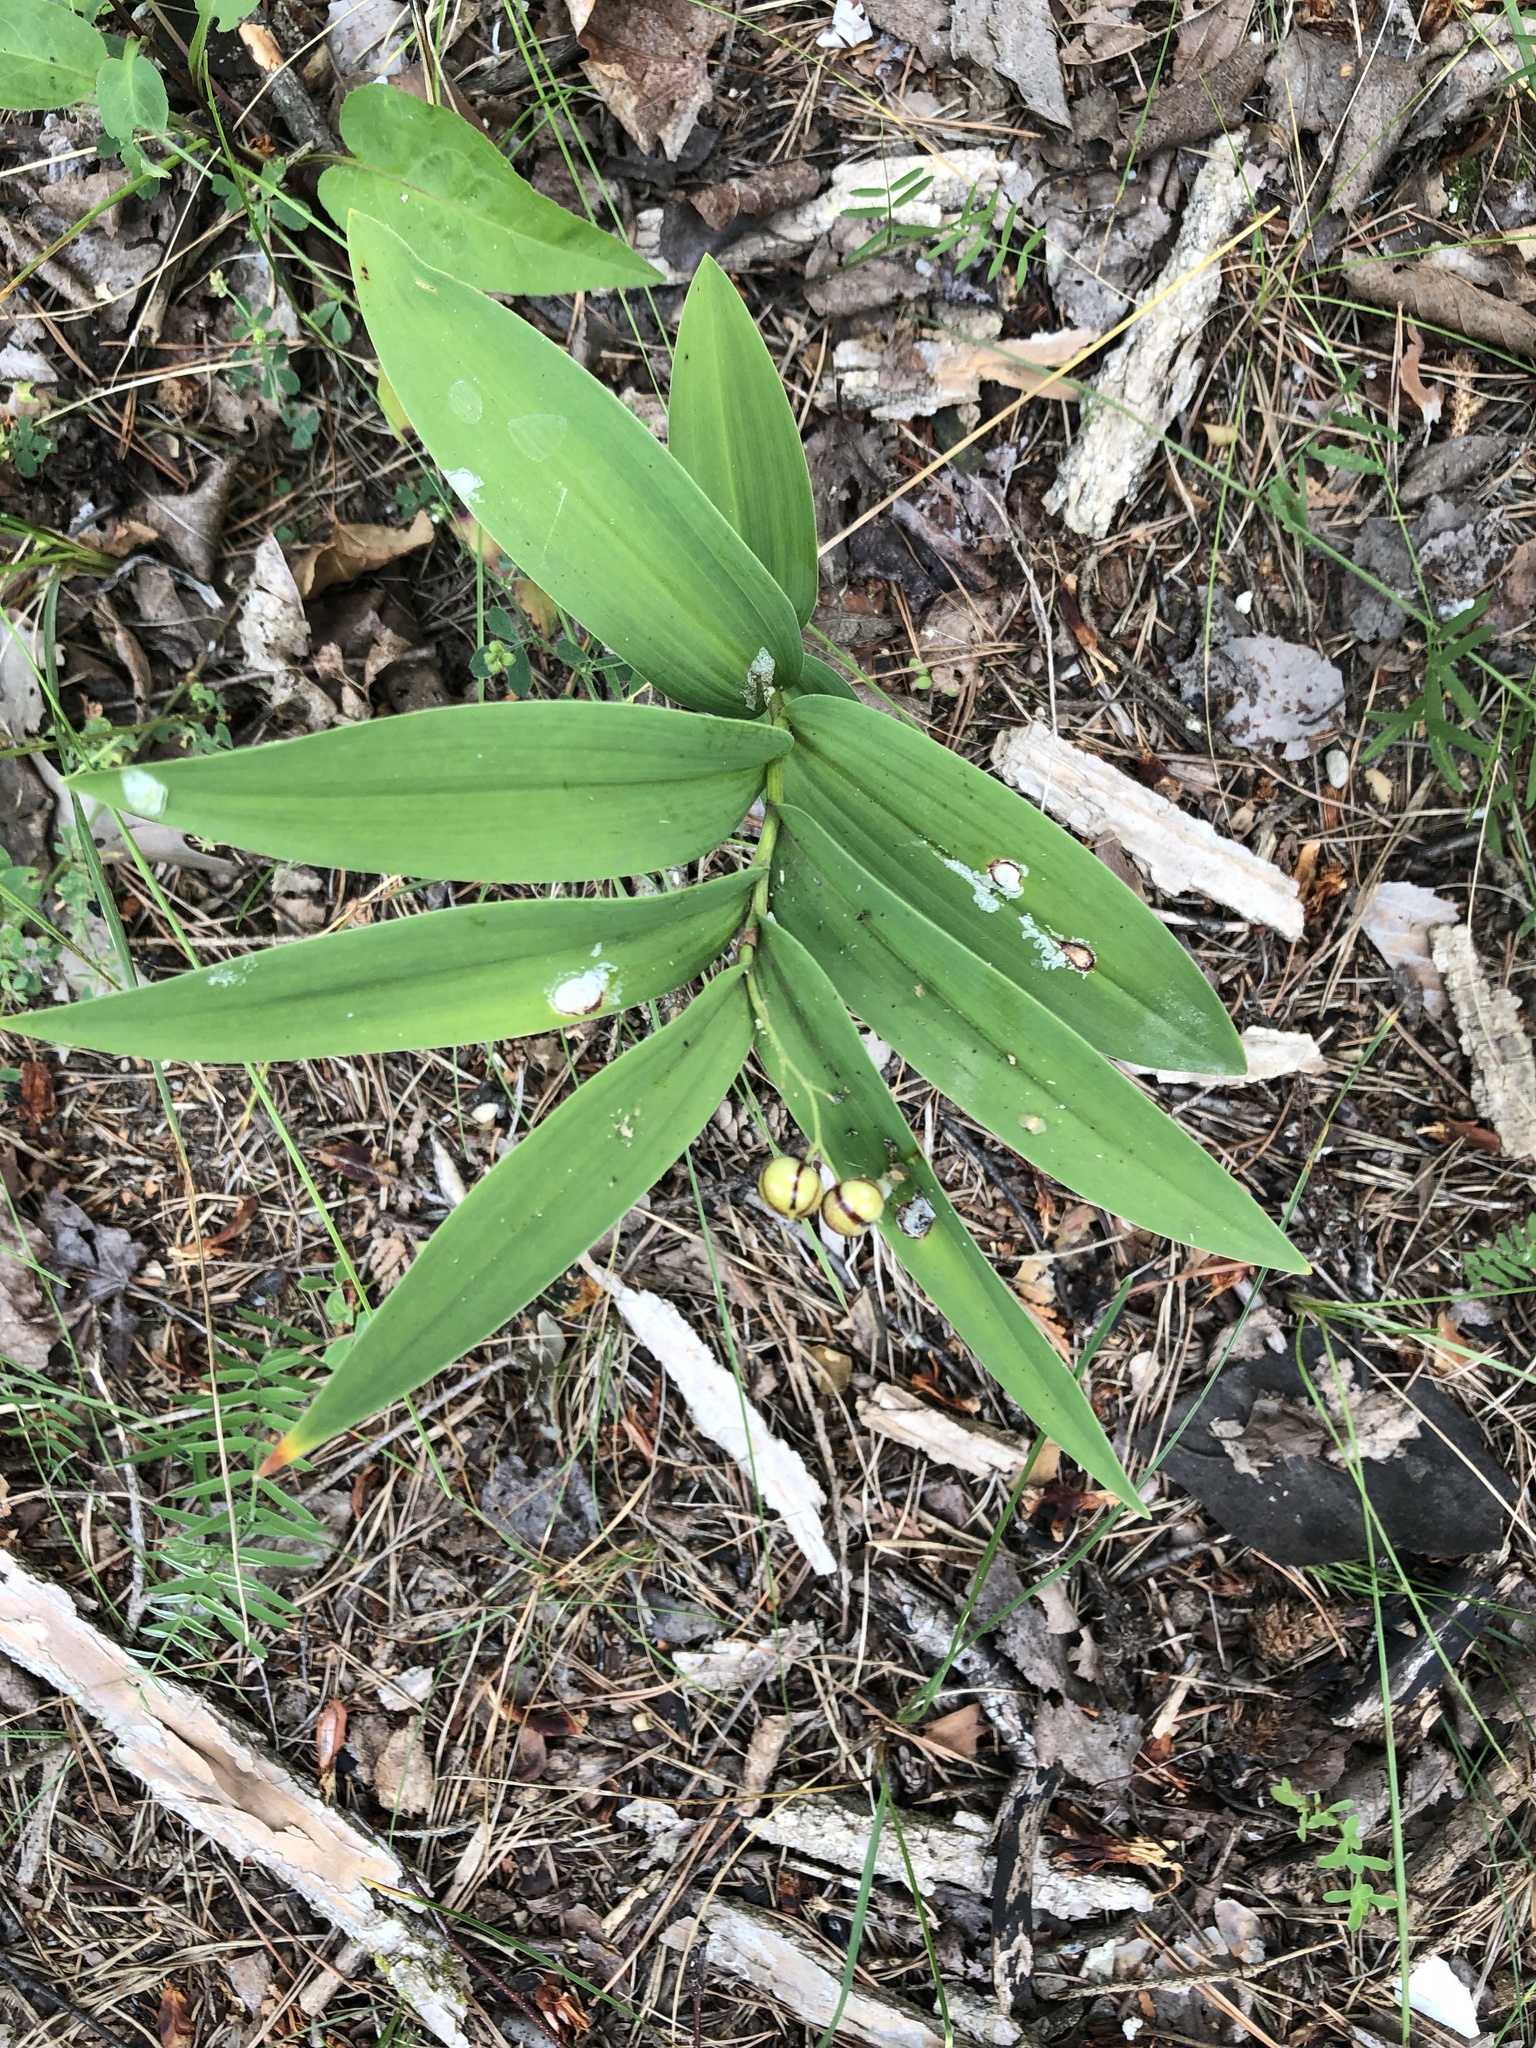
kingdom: Plantae
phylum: Tracheophyta
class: Liliopsida
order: Asparagales
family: Asparagaceae
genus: Maianthemum
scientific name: Maianthemum stellatum
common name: Little false solomon's seal
